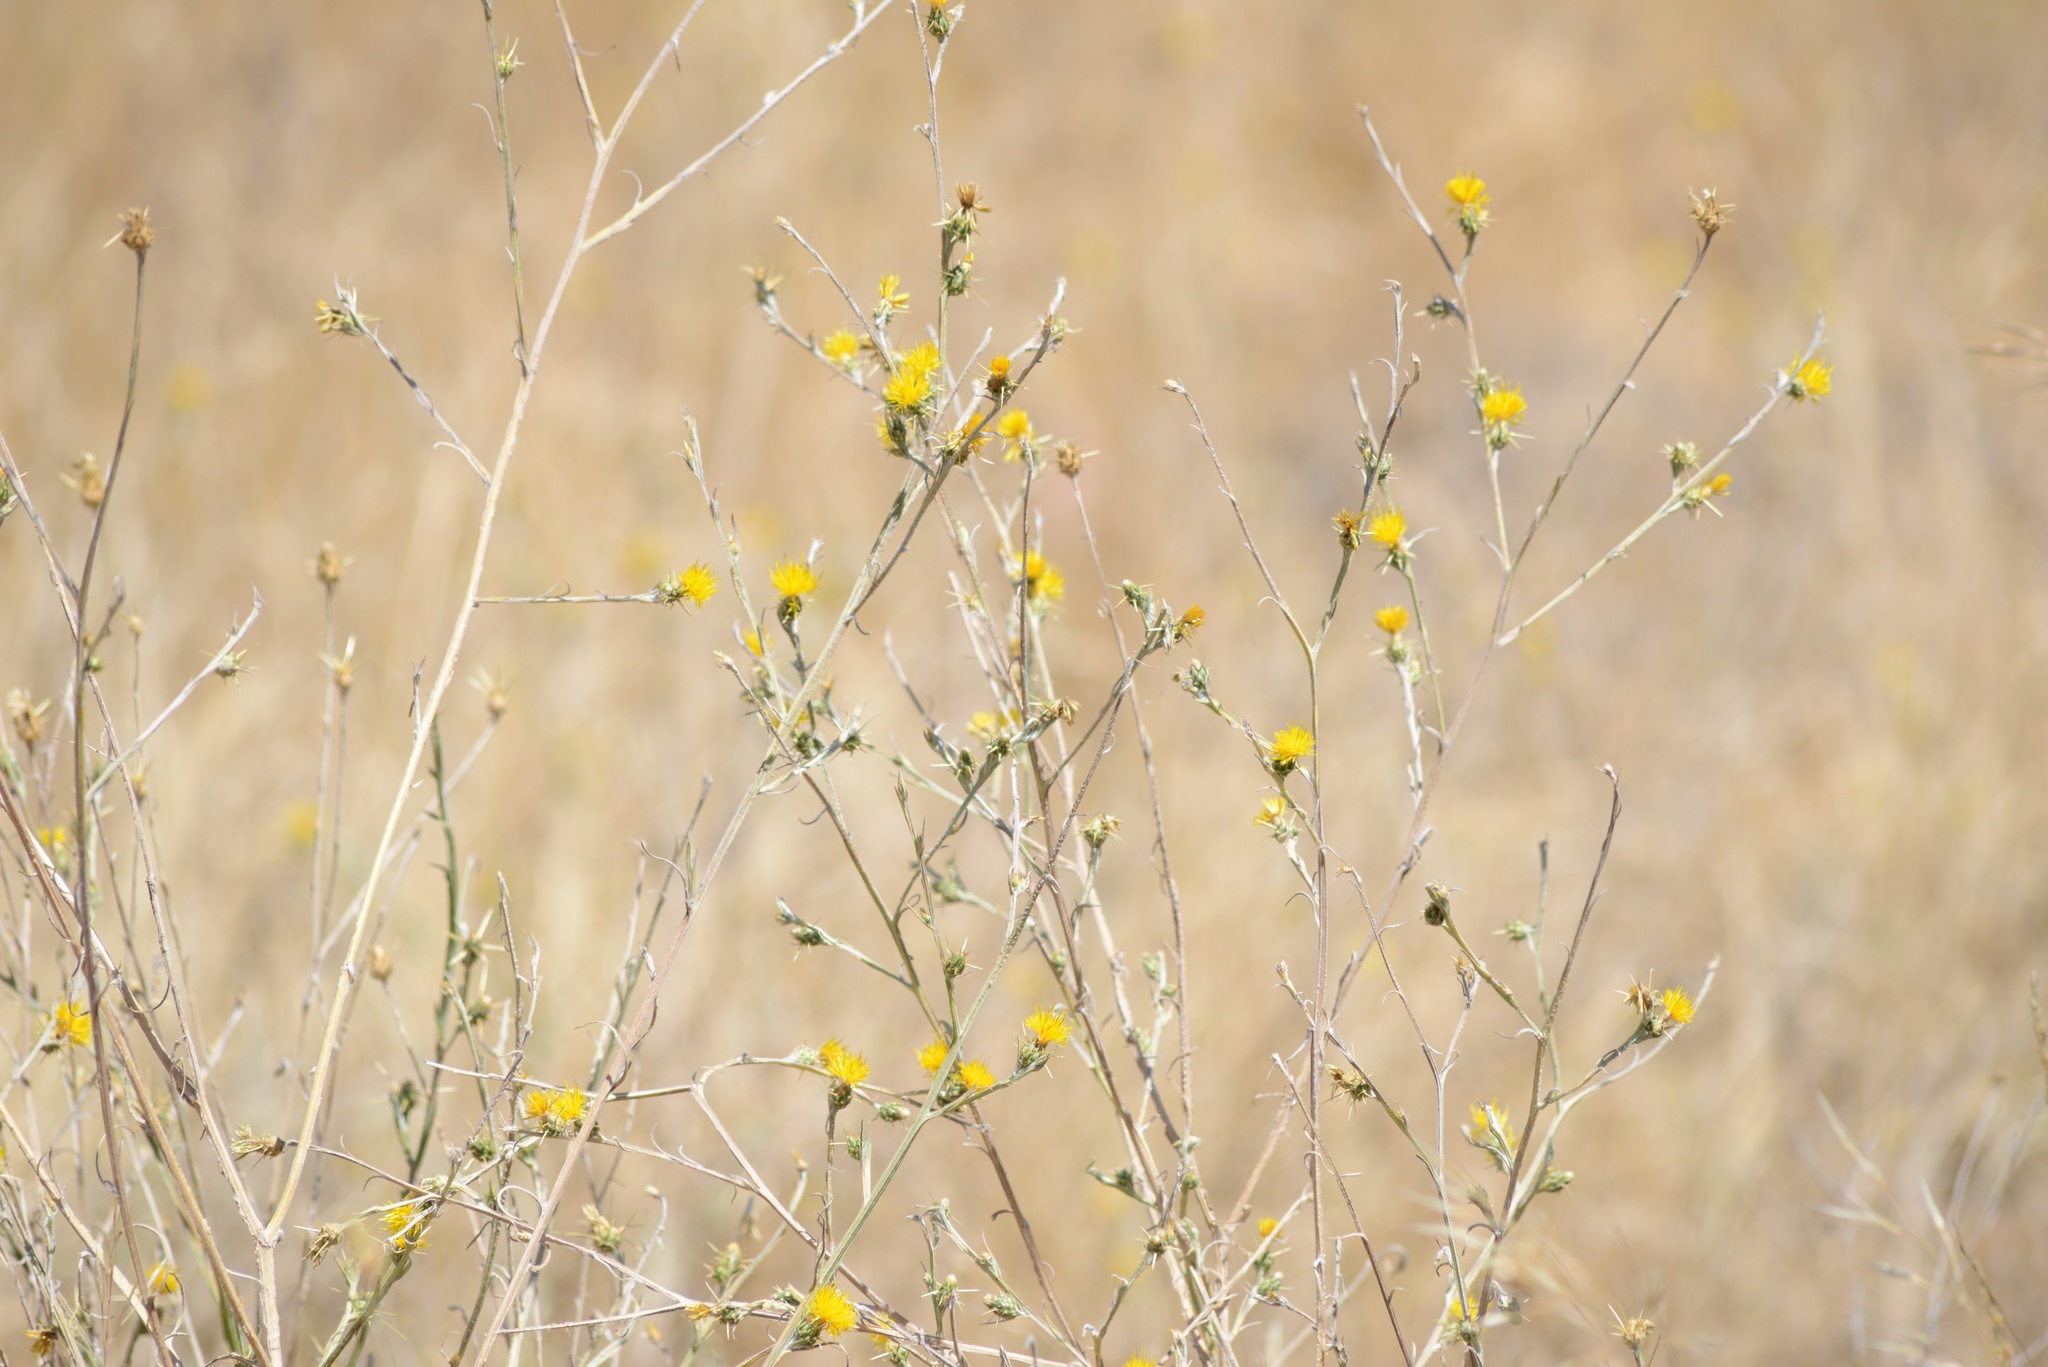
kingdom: Plantae
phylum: Tracheophyta
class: Magnoliopsida
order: Asterales
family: Asteraceae
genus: Centaurea
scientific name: Centaurea solstitialis
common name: Yellow star-thistle
